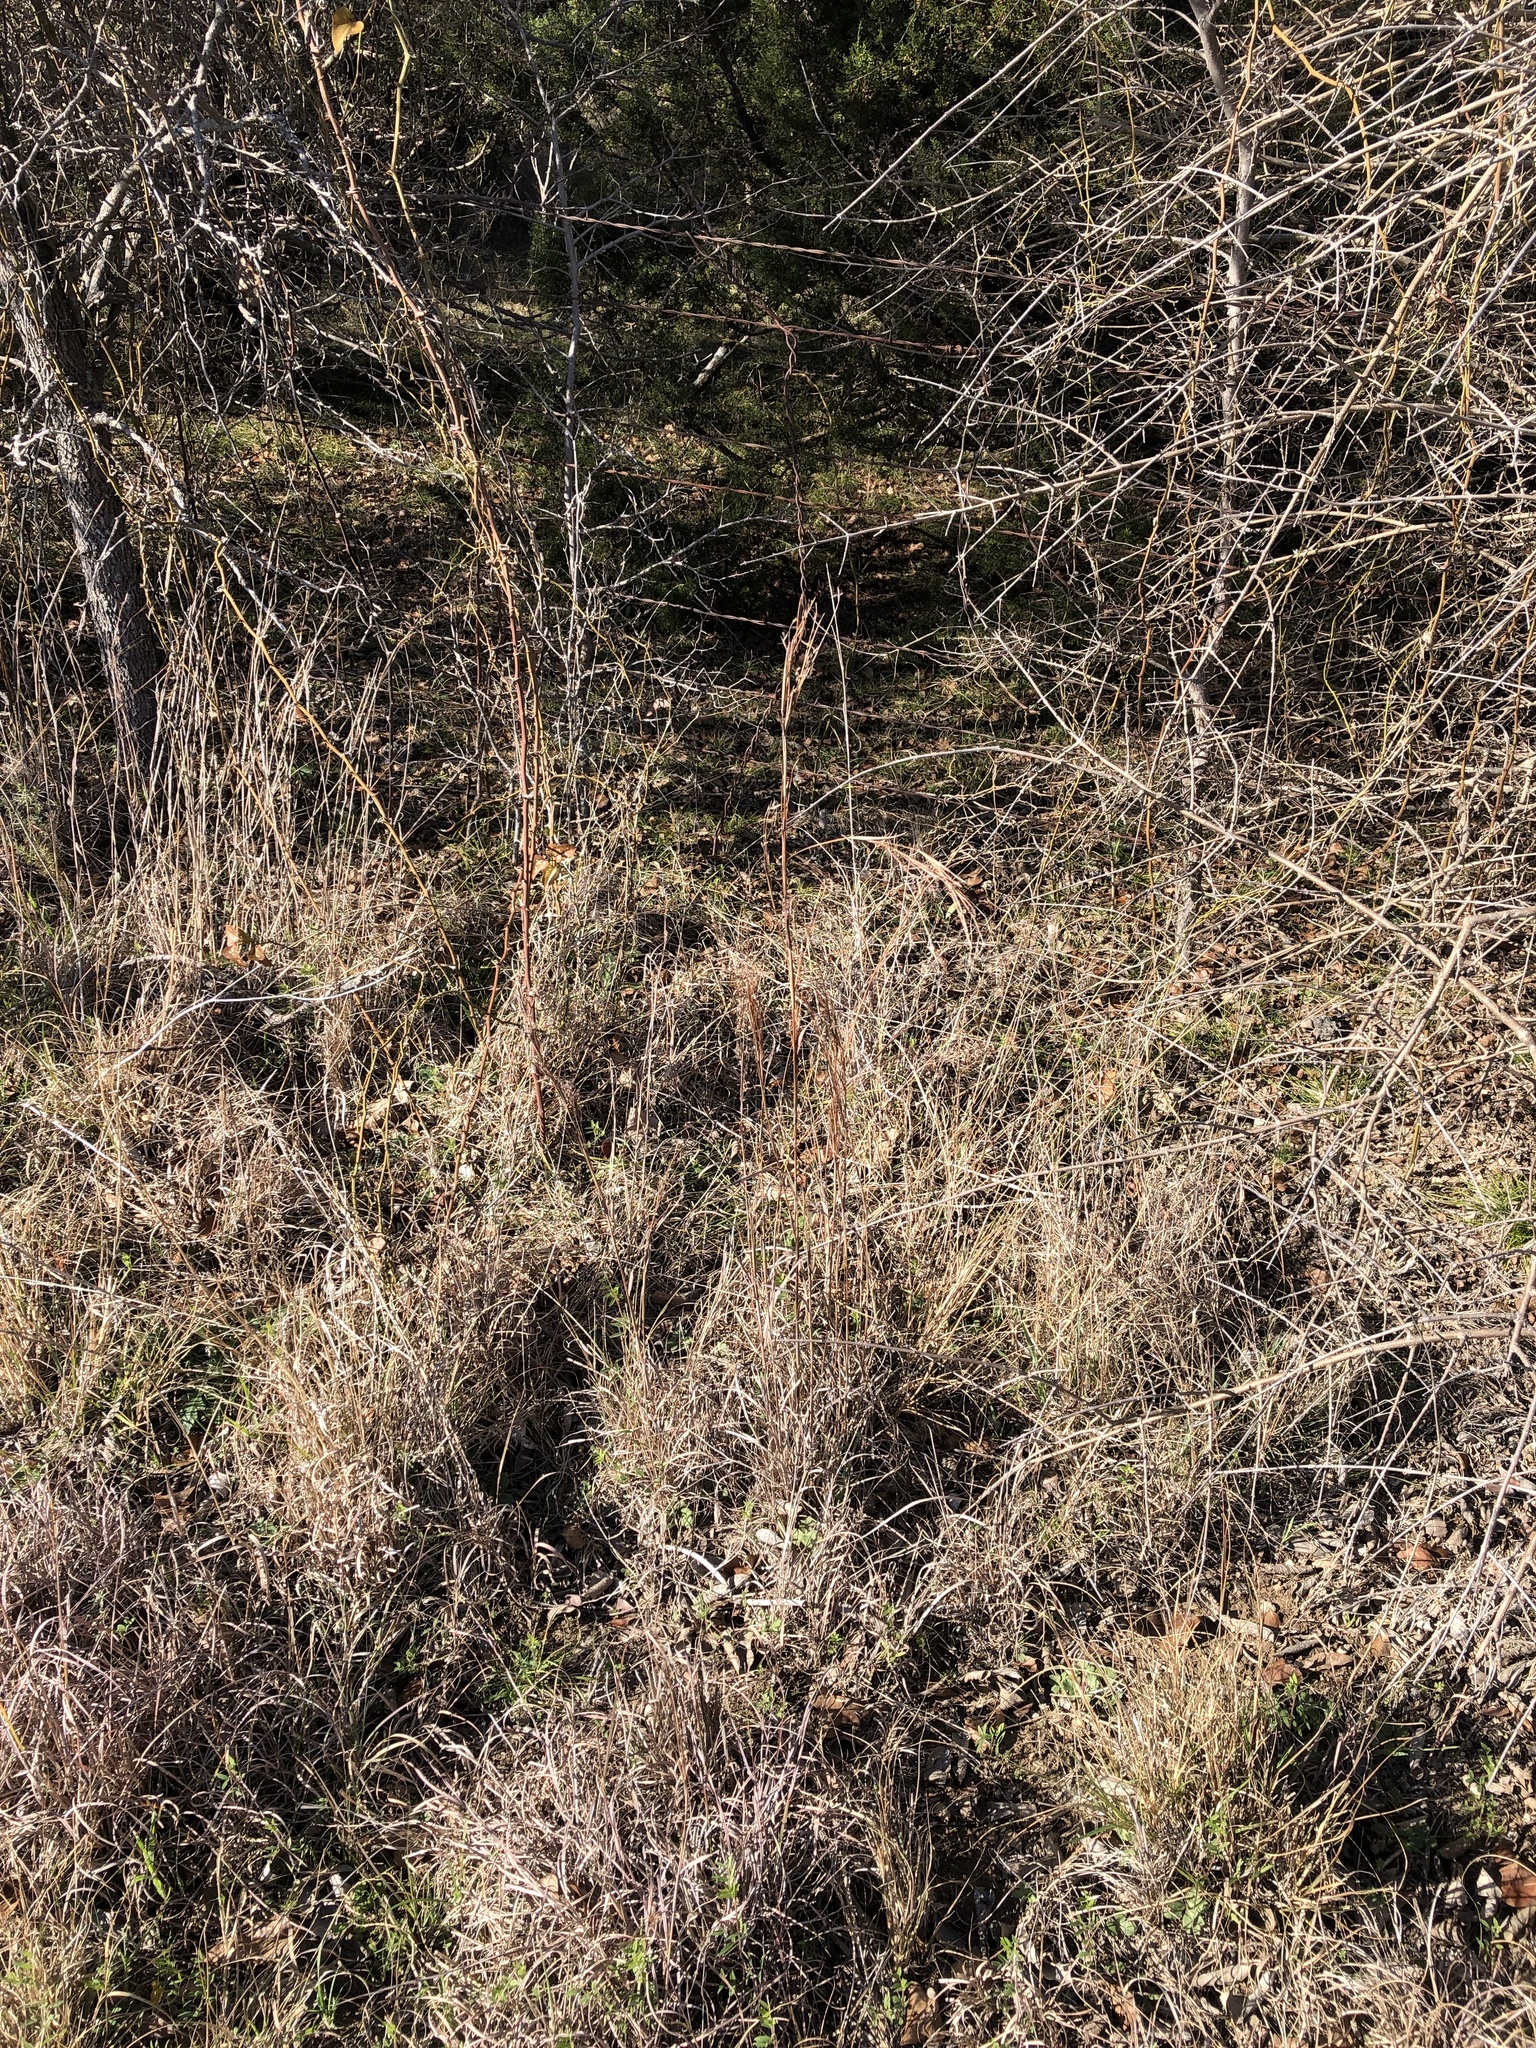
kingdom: Plantae
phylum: Tracheophyta
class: Liliopsida
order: Poales
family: Poaceae
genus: Schizachyrium
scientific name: Schizachyrium scoparium
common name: Little bluestem
